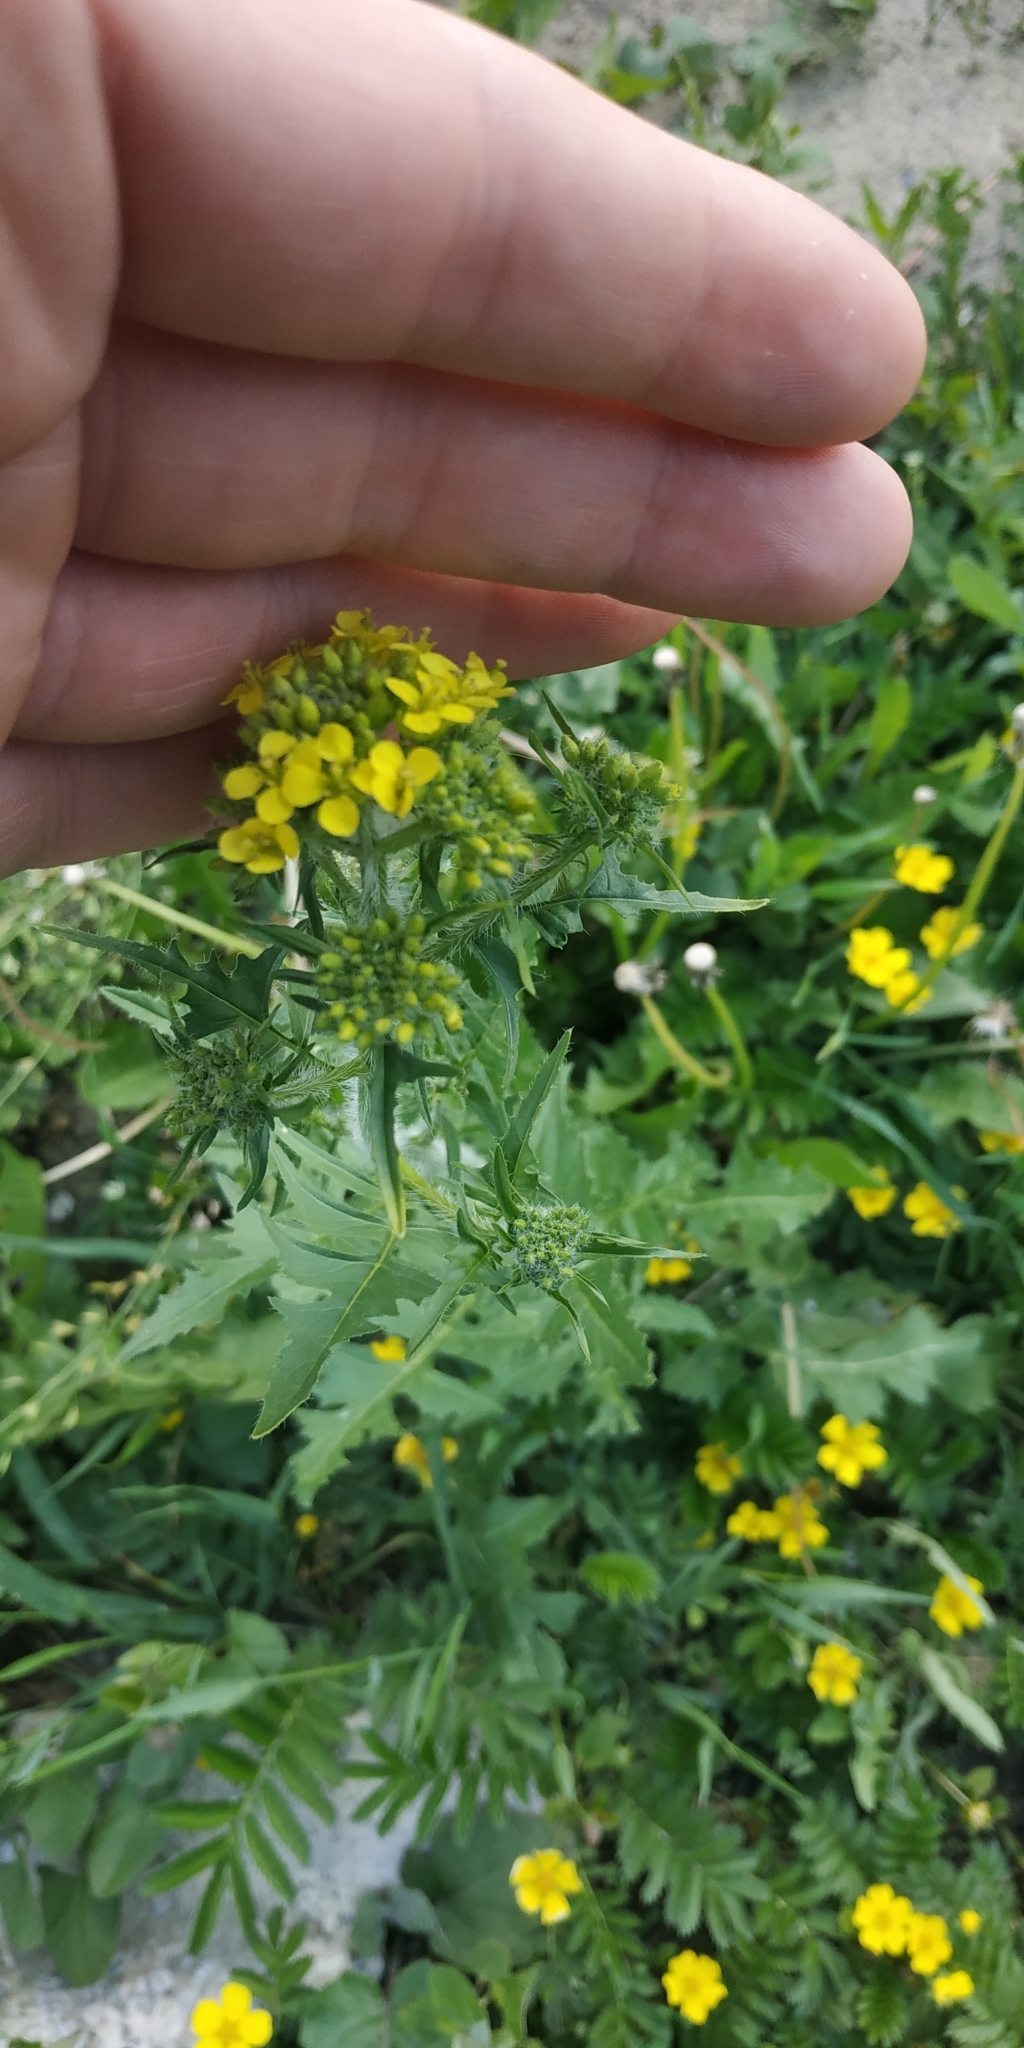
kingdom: Plantae
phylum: Tracheophyta
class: Magnoliopsida
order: Brassicales
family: Brassicaceae
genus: Sisymbrium
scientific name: Sisymbrium loeselii
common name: False london-rocket
